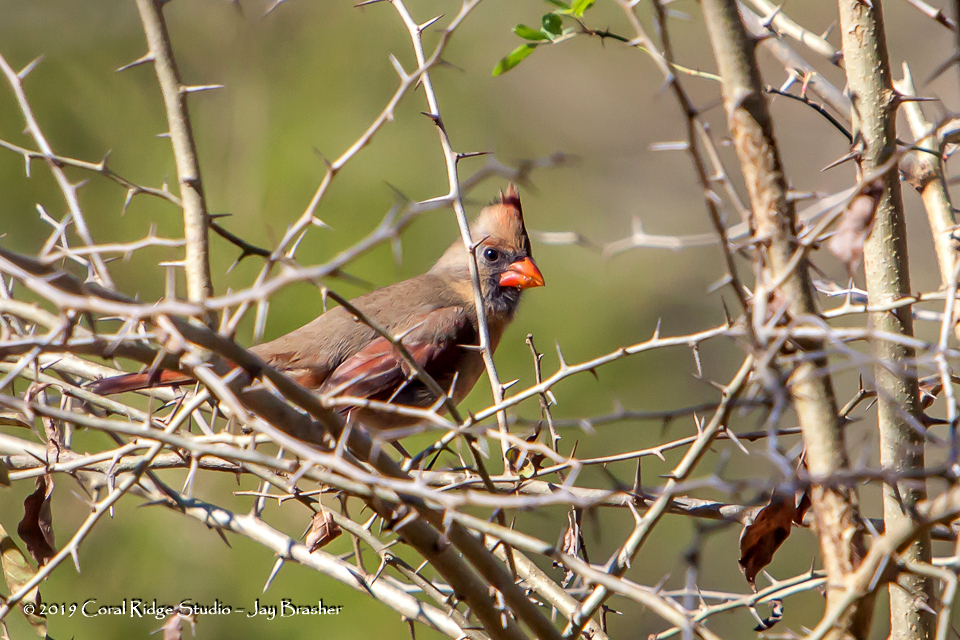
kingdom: Animalia
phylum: Chordata
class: Aves
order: Passeriformes
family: Cardinalidae
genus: Cardinalis
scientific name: Cardinalis cardinalis
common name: Northern cardinal
